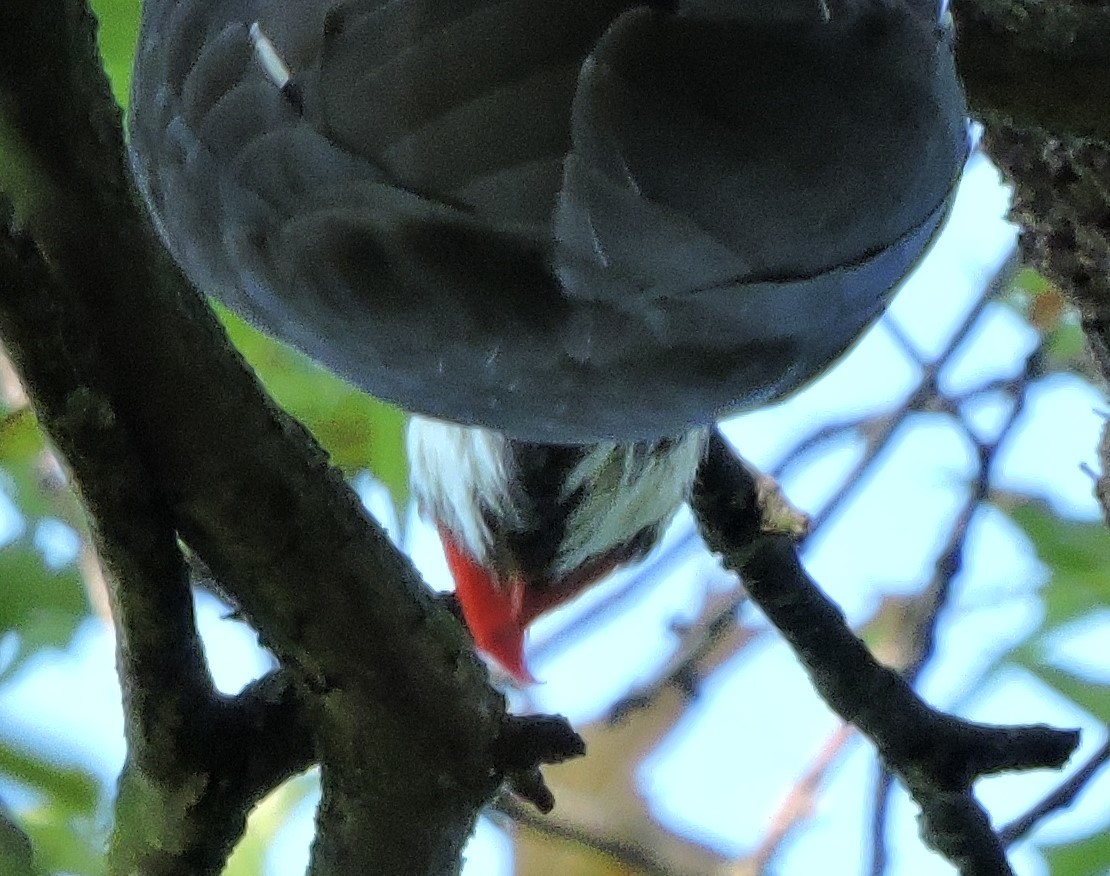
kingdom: Animalia
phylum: Chordata
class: Aves
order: Piciformes
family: Picidae
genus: Dryocopus
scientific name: Dryocopus pileatus
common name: Pileated woodpecker
